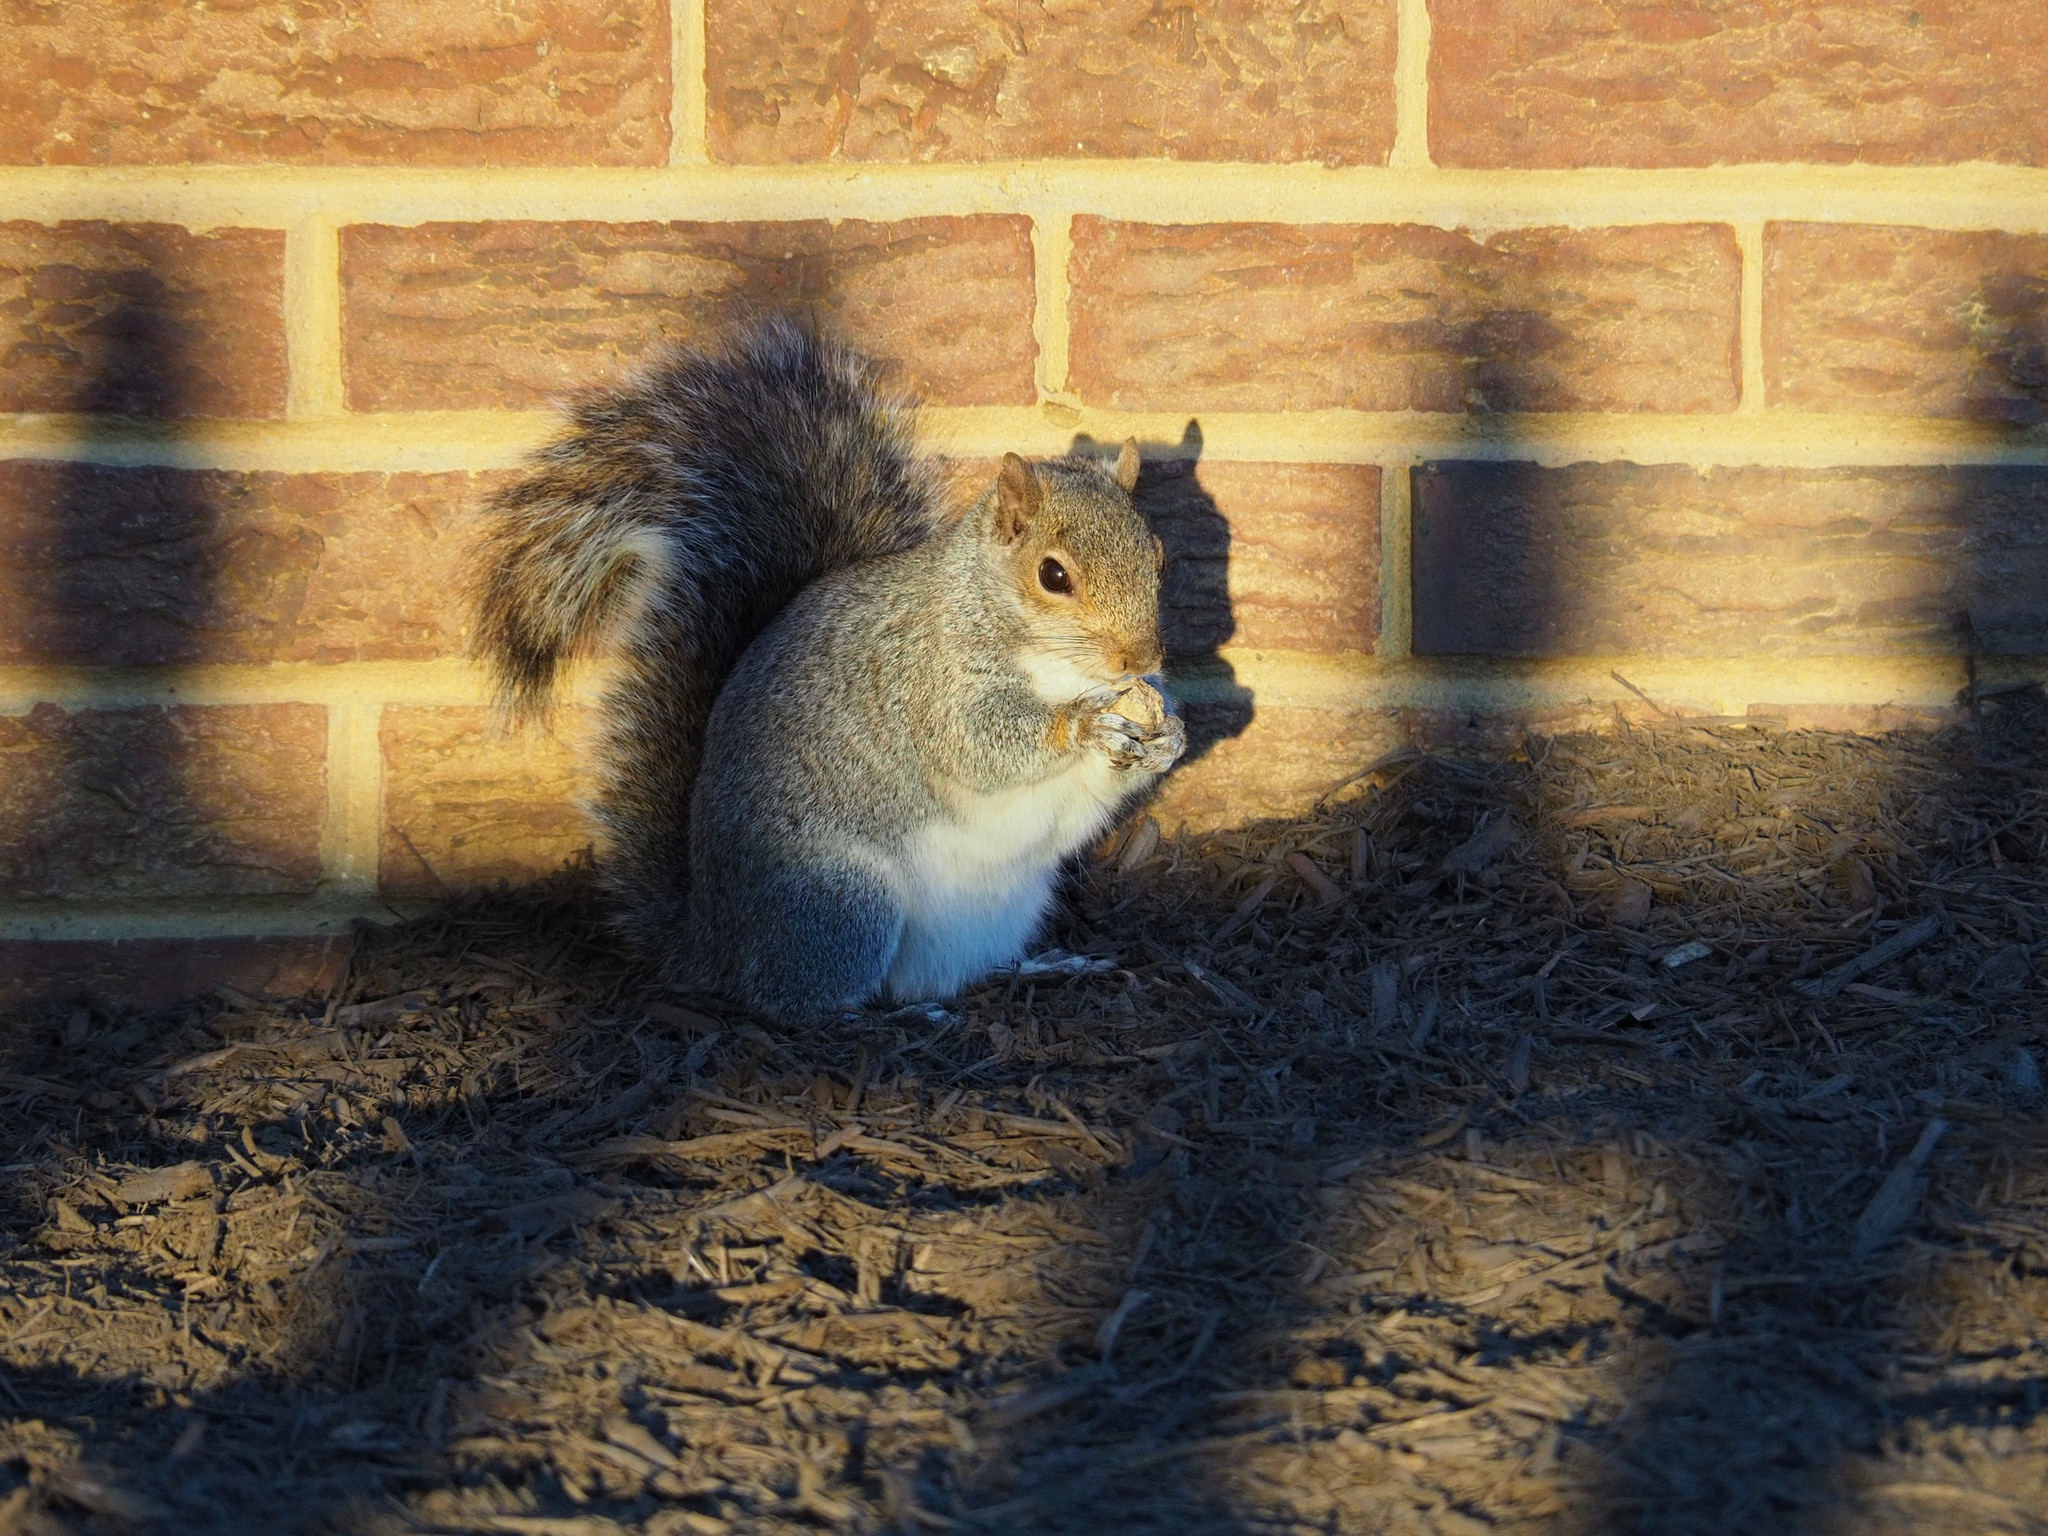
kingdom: Animalia
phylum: Chordata
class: Mammalia
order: Rodentia
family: Sciuridae
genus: Sciurus
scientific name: Sciurus carolinensis
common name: Eastern gray squirrel
